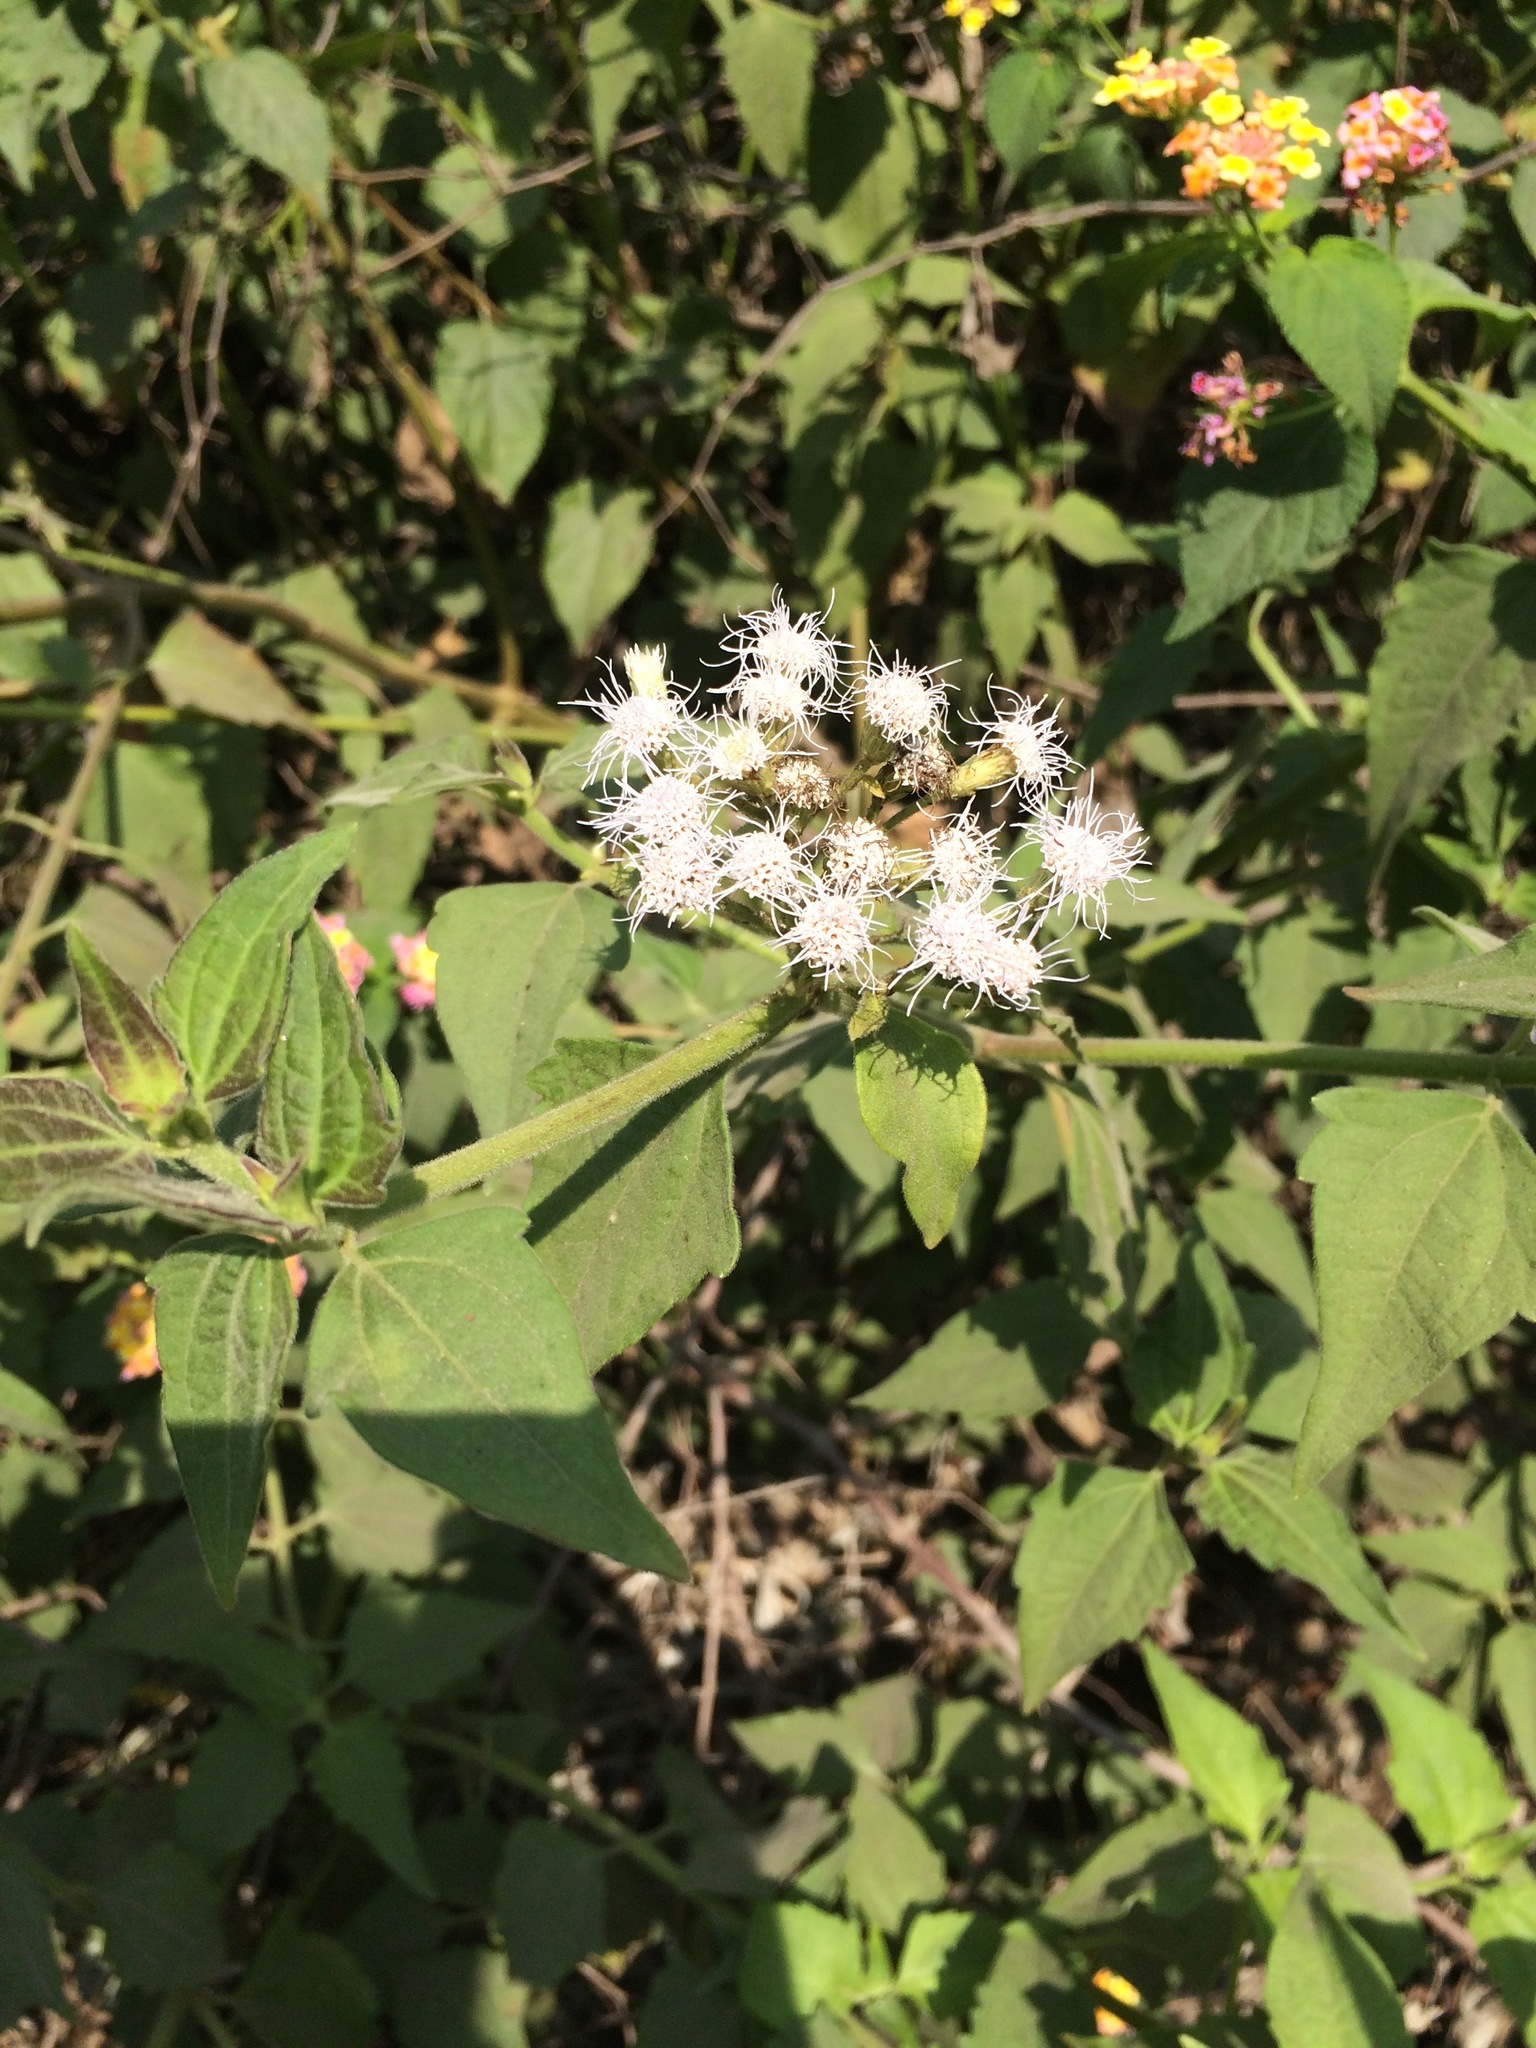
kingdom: Plantae
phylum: Tracheophyta
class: Magnoliopsida
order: Asterales
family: Asteraceae
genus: Chromolaena
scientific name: Chromolaena odorata
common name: Siamweed
